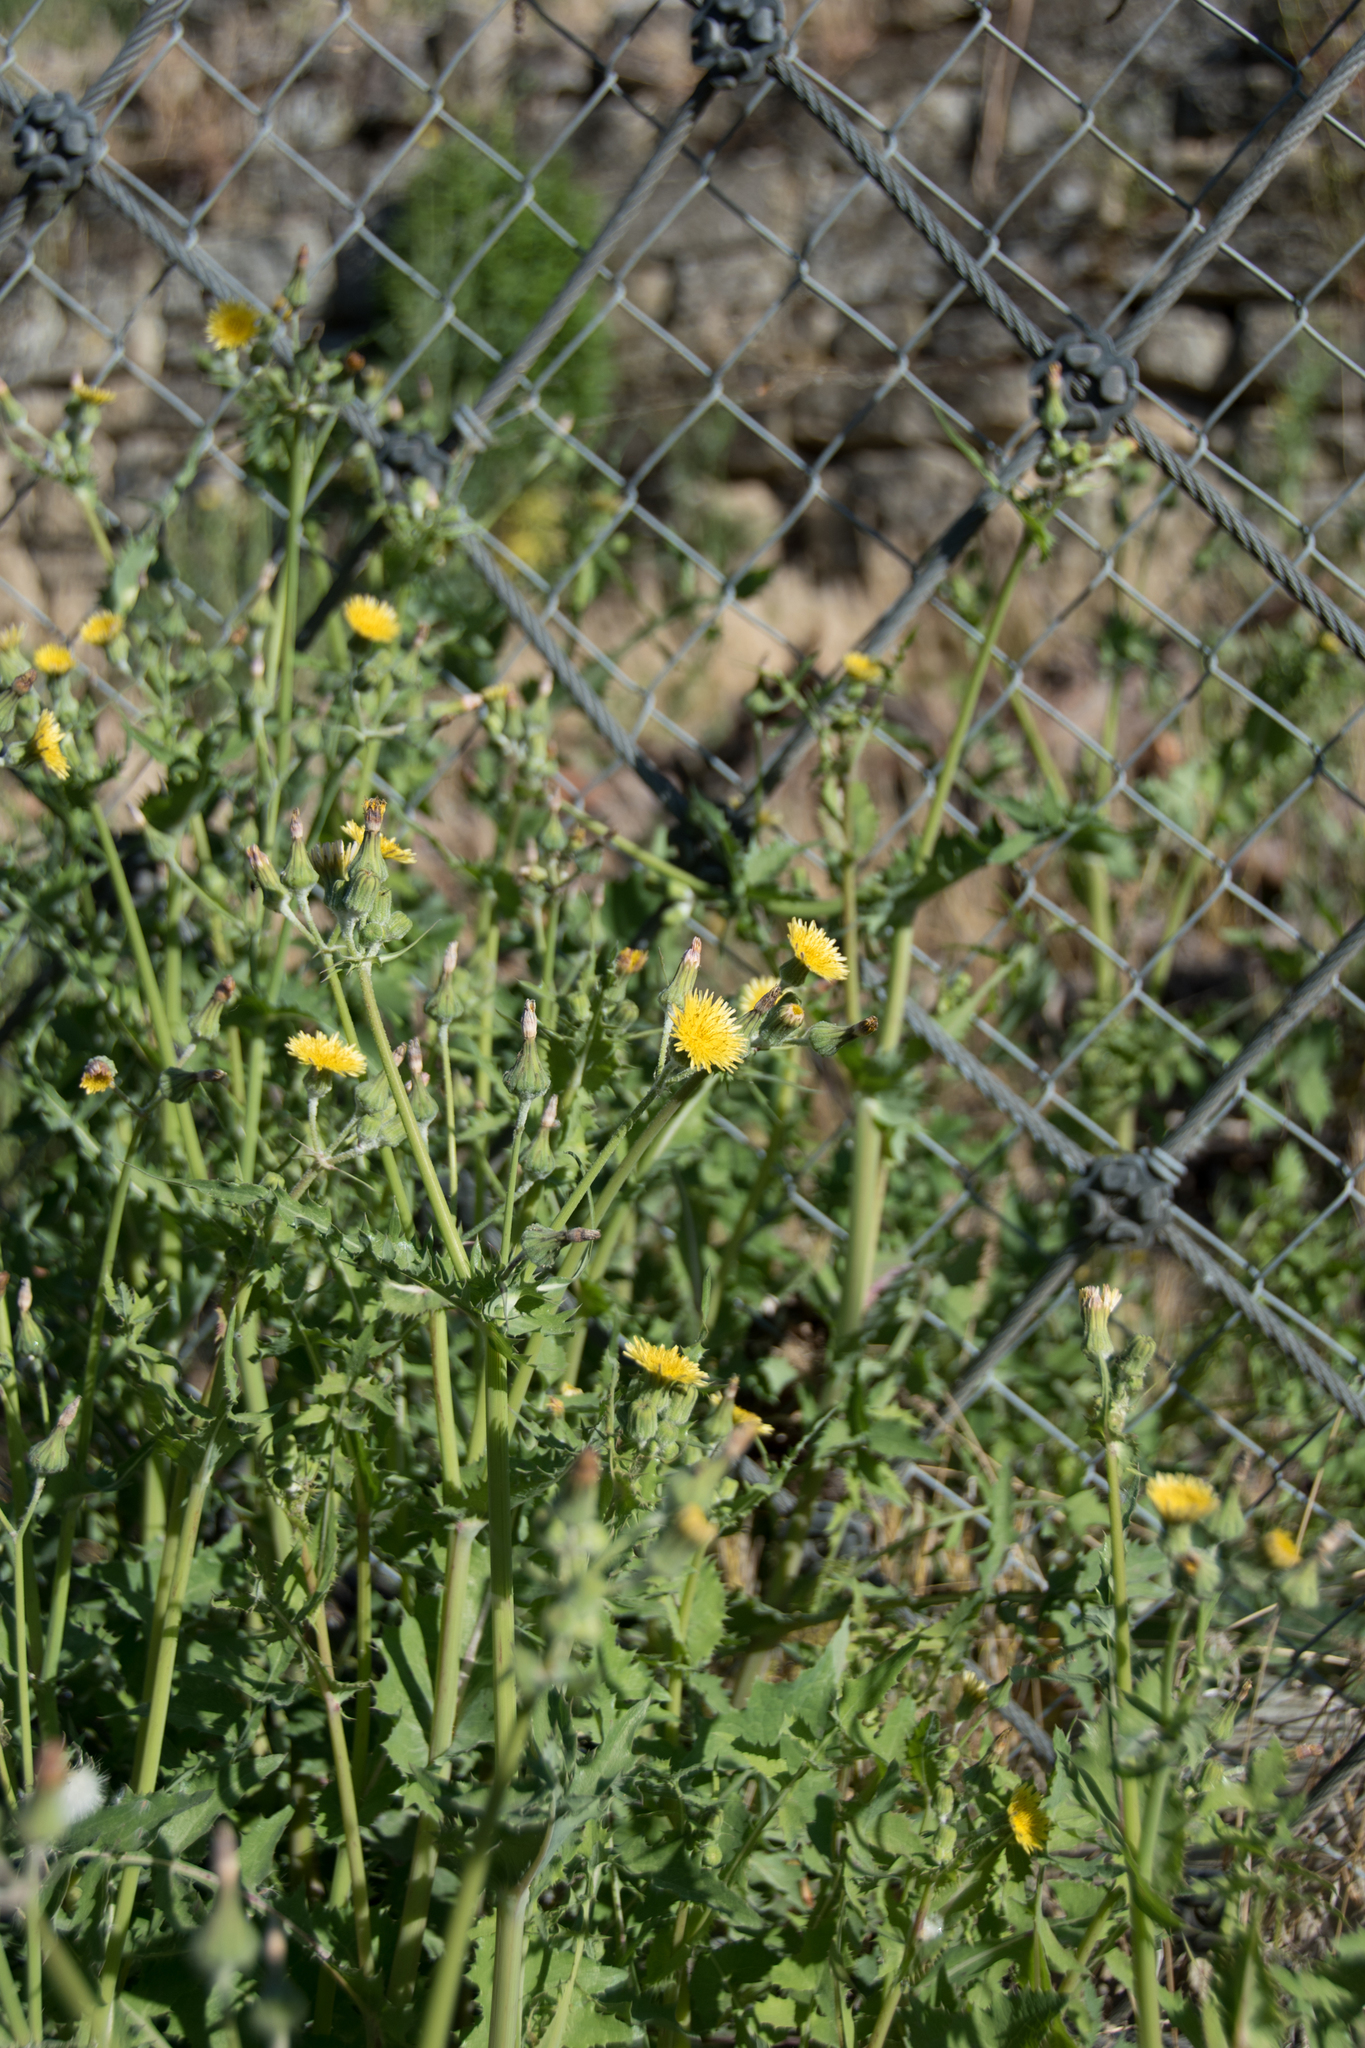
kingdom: Plantae
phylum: Tracheophyta
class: Magnoliopsida
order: Asterales
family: Asteraceae
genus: Sonchus
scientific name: Sonchus oleraceus
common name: Common sowthistle
